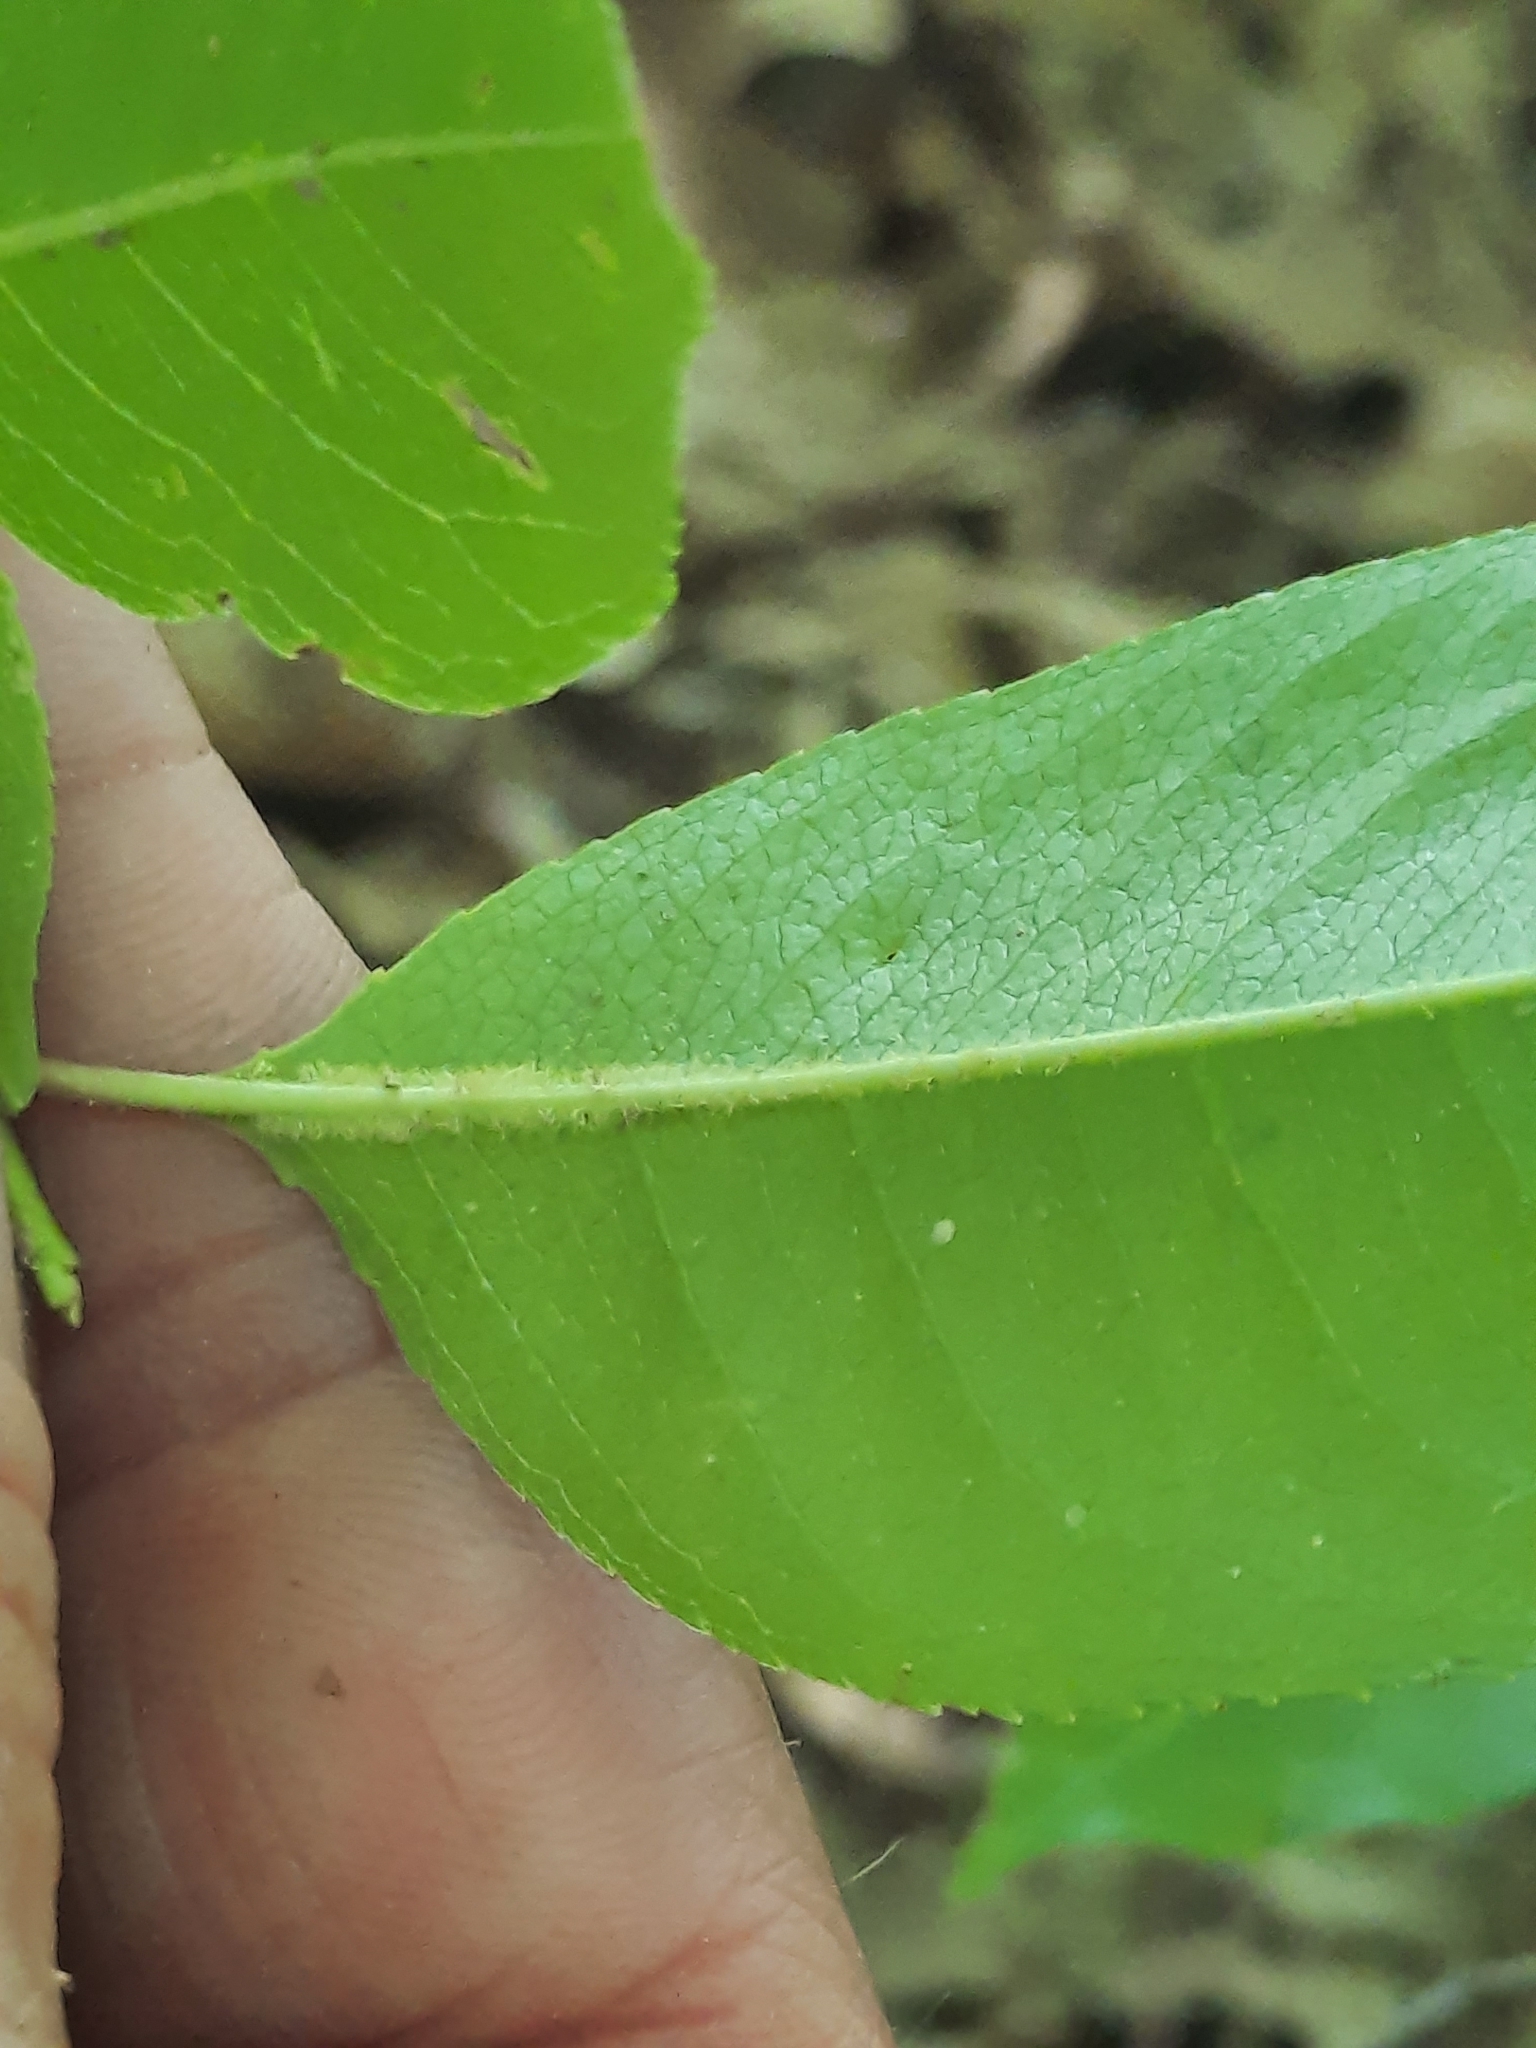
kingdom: Plantae
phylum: Tracheophyta
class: Magnoliopsida
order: Rosales
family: Rosaceae
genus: Prunus
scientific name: Prunus serotina
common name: Black cherry
